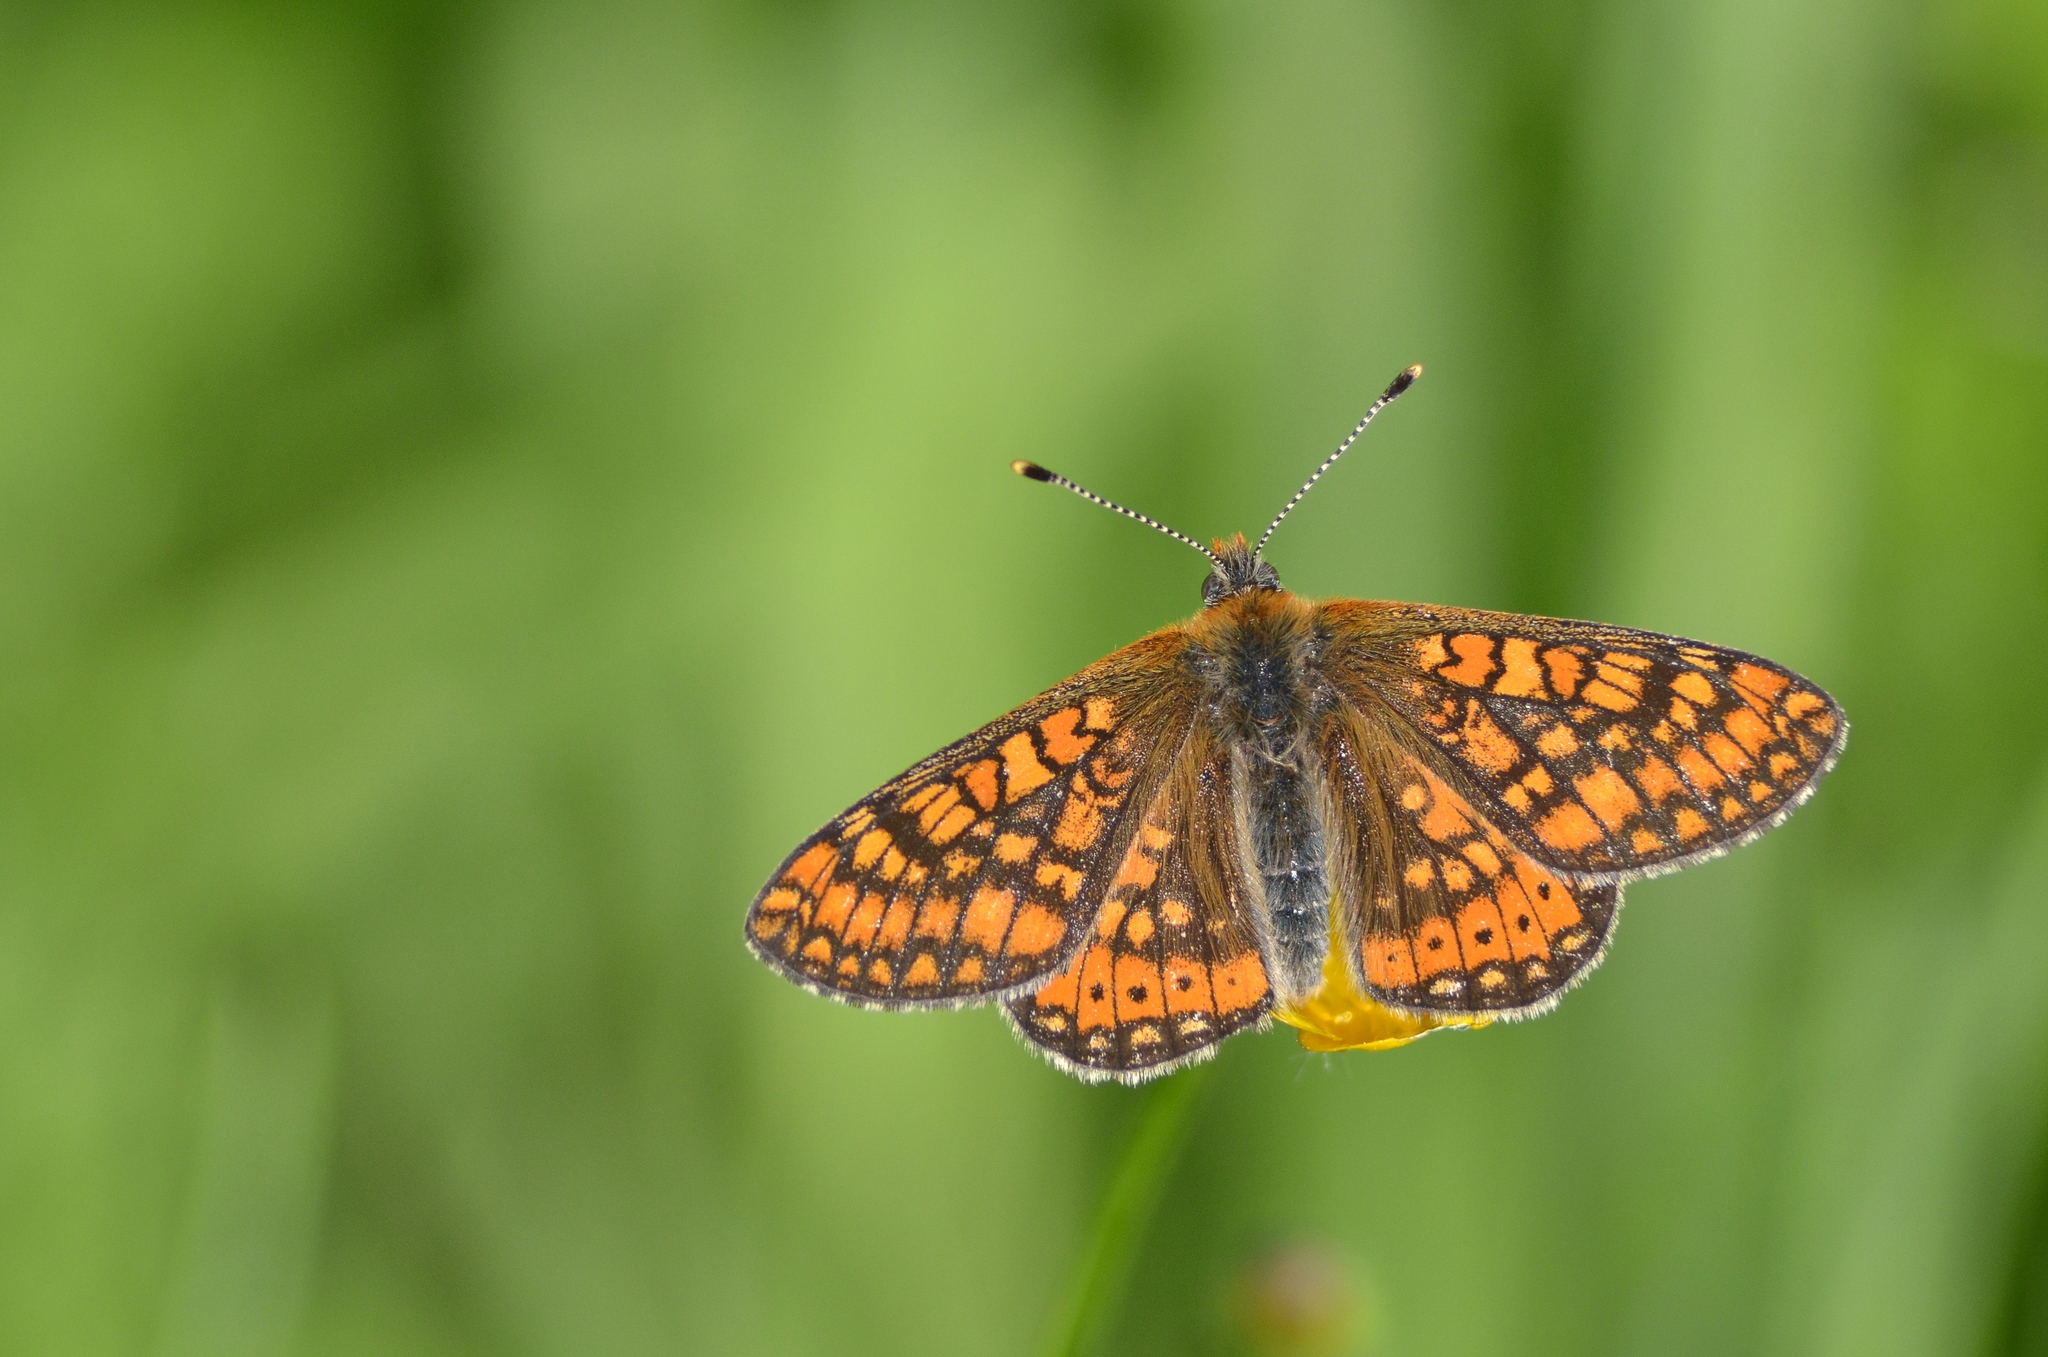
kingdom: Animalia
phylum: Arthropoda
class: Insecta
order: Lepidoptera
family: Nymphalidae
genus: Euphydryas
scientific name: Euphydryas aurinia
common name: Marsh fritillary
